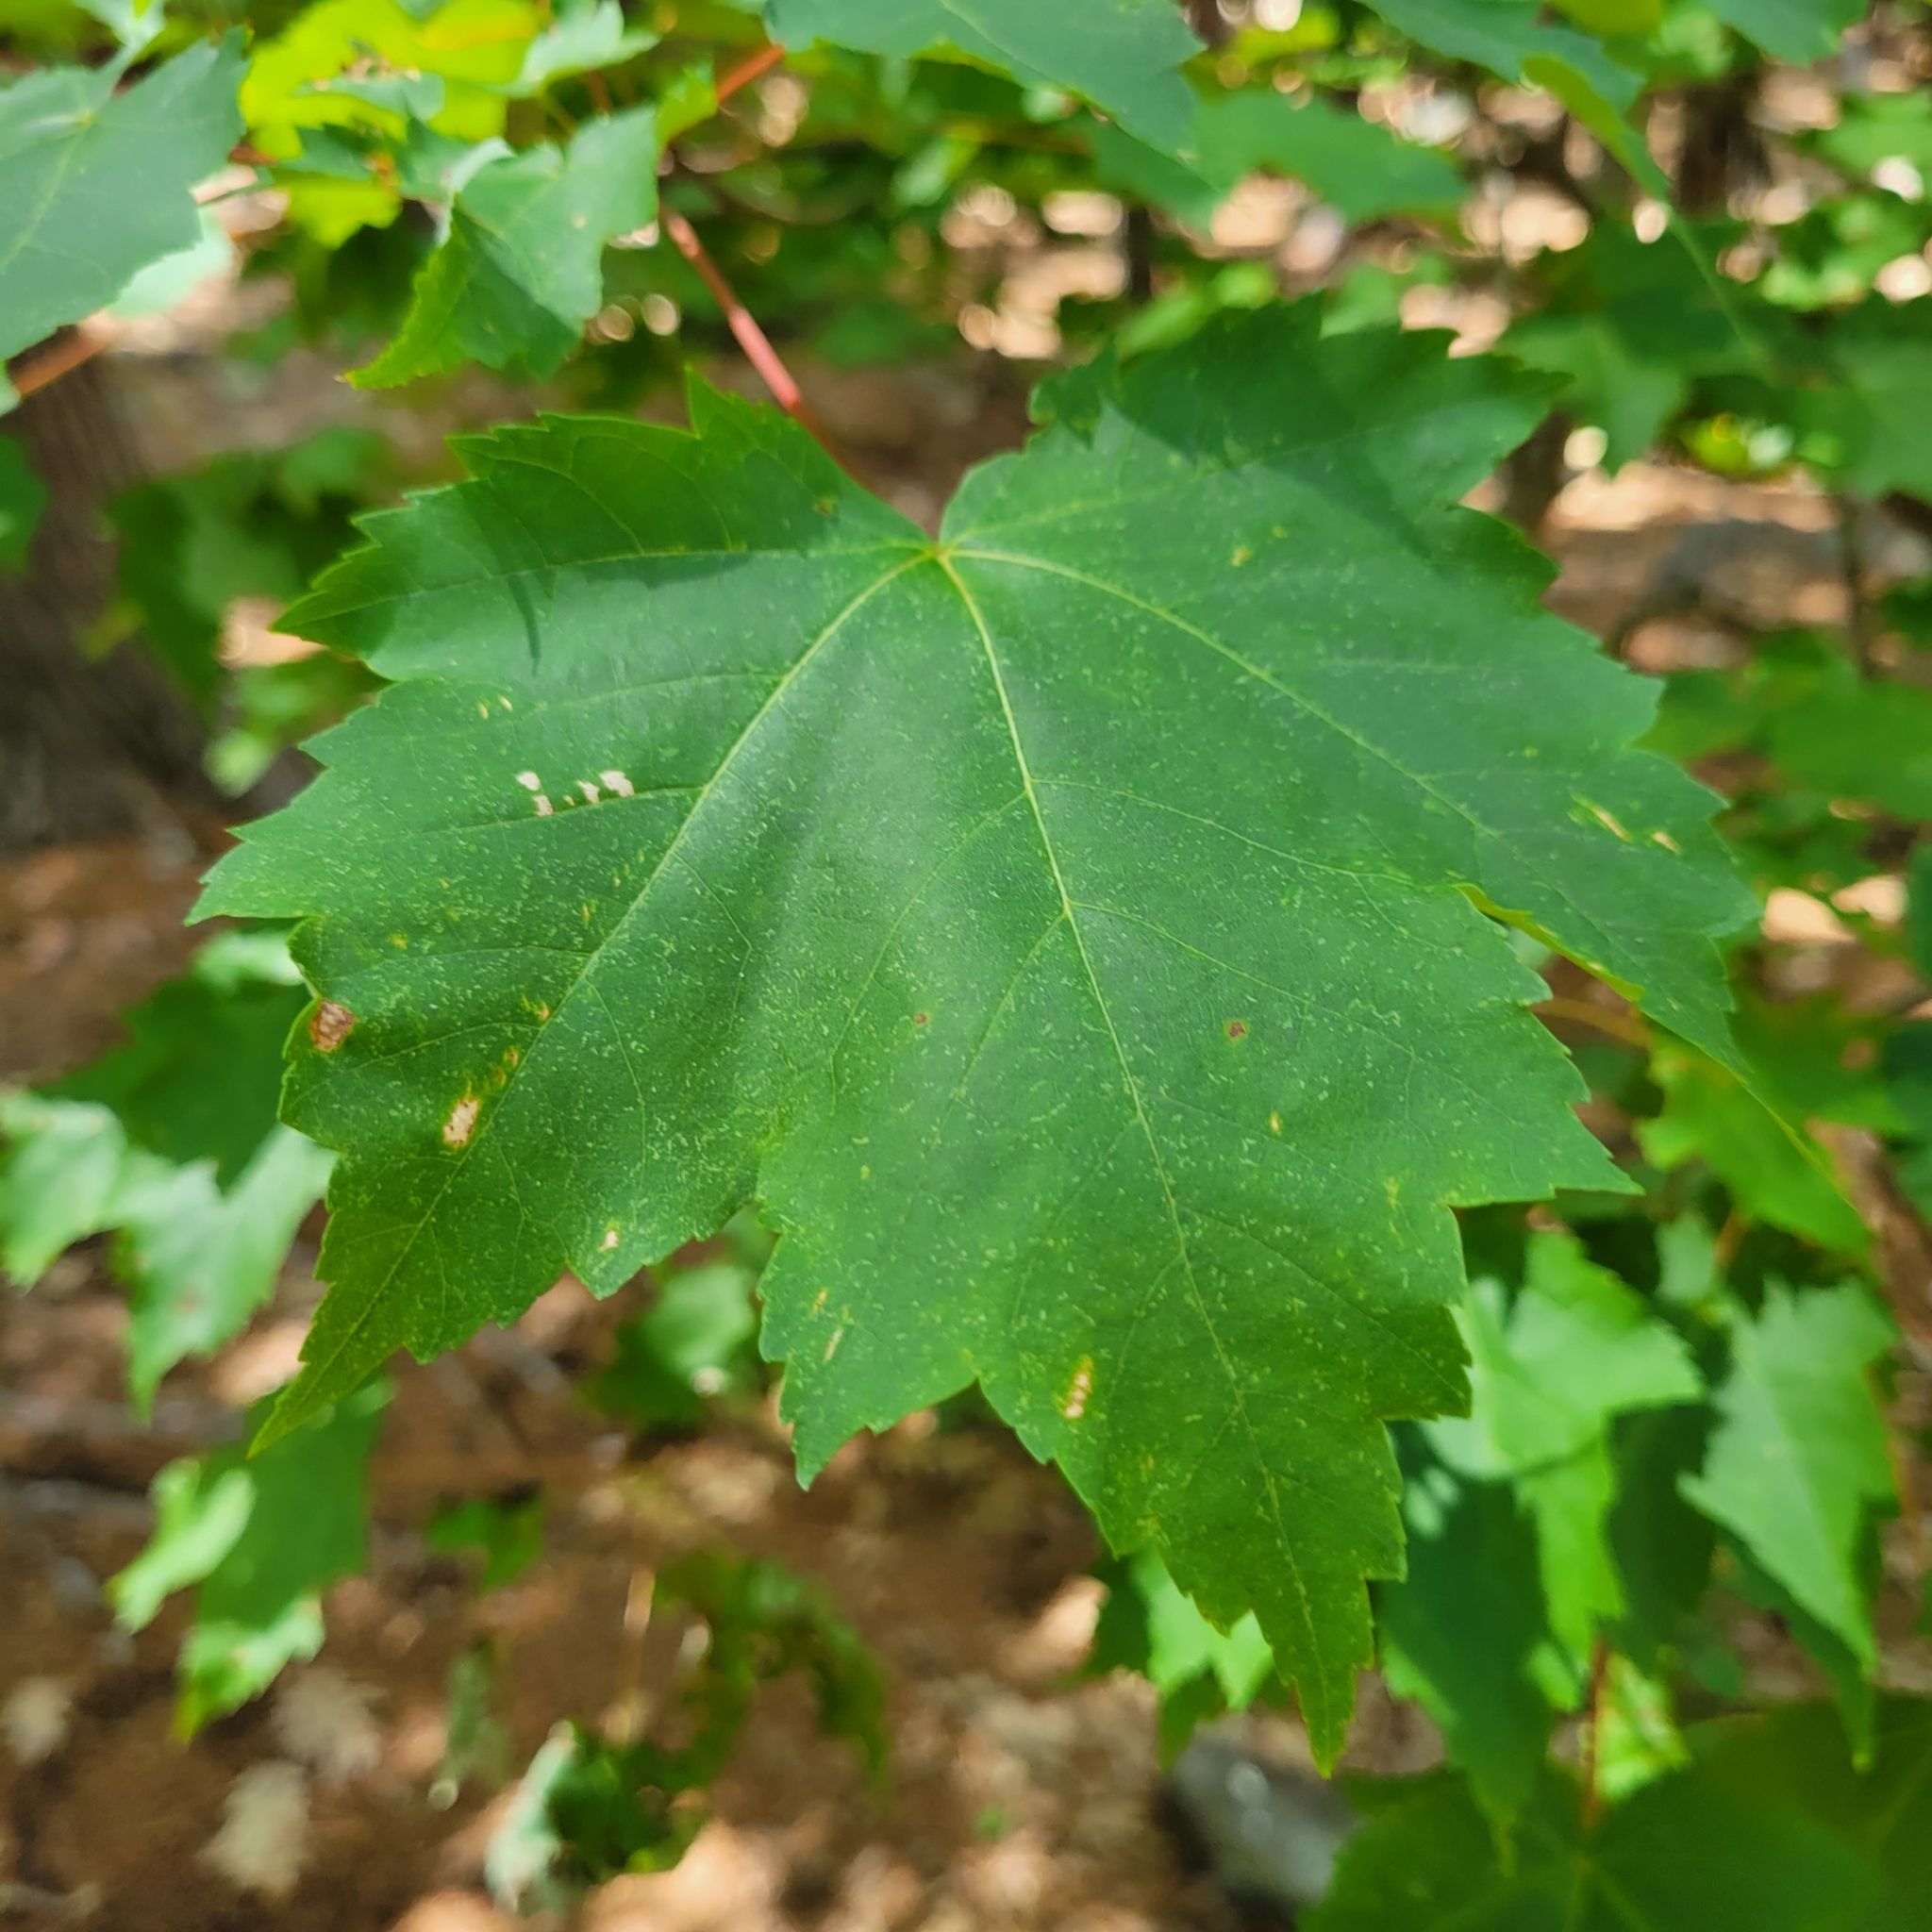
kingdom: Plantae
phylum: Tracheophyta
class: Magnoliopsida
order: Sapindales
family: Sapindaceae
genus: Acer
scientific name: Acer rubrum
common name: Red maple
